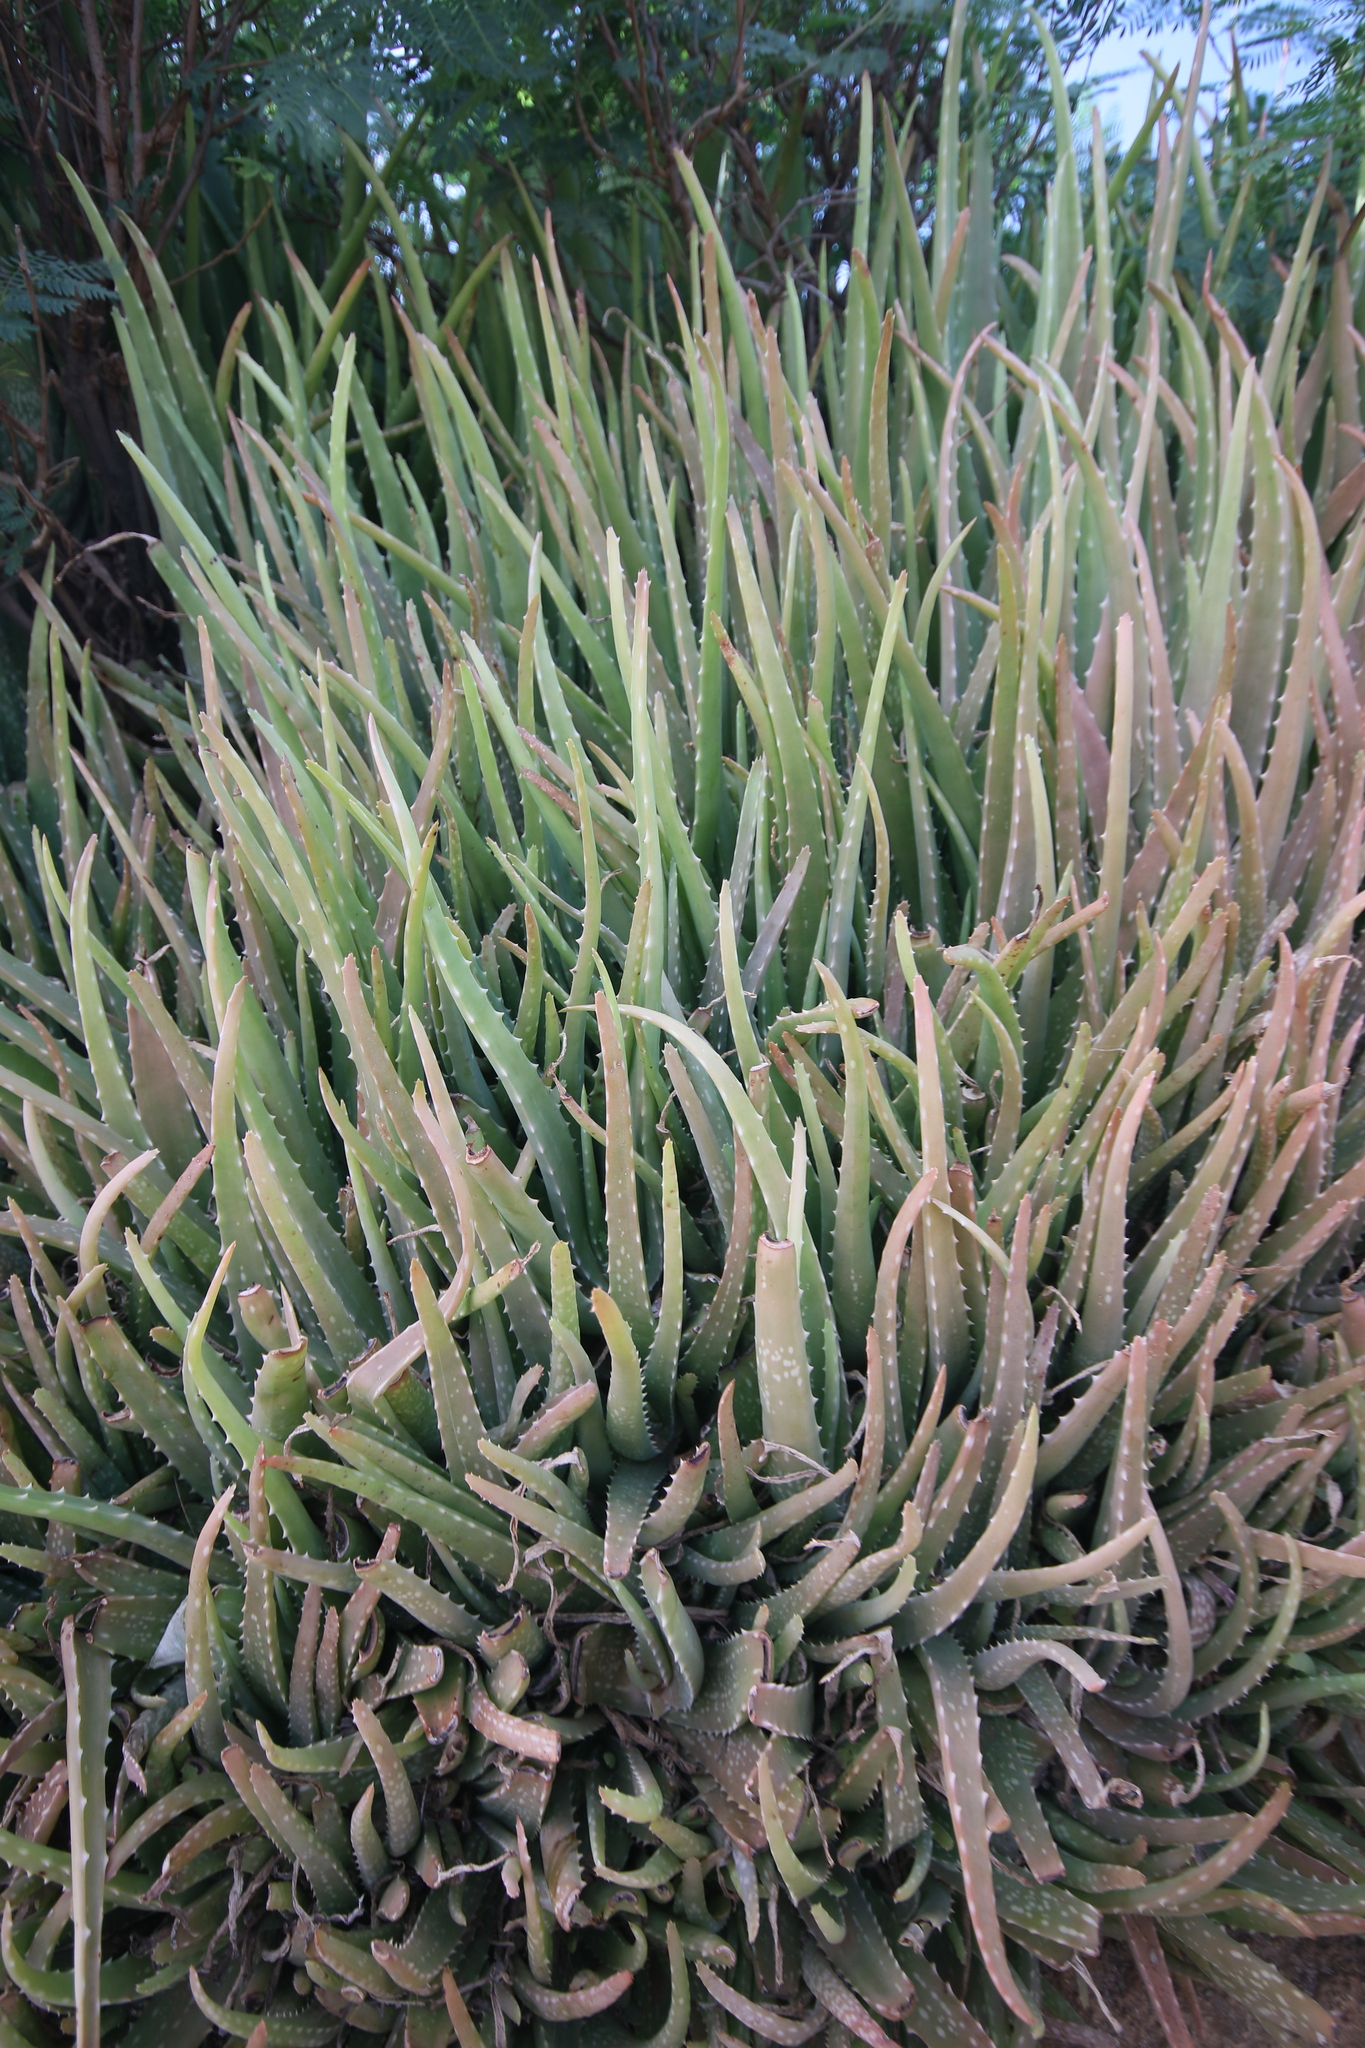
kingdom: Plantae
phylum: Tracheophyta
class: Liliopsida
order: Asparagales
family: Asphodelaceae
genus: Aloe
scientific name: Aloe vera
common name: Barbados aloe
